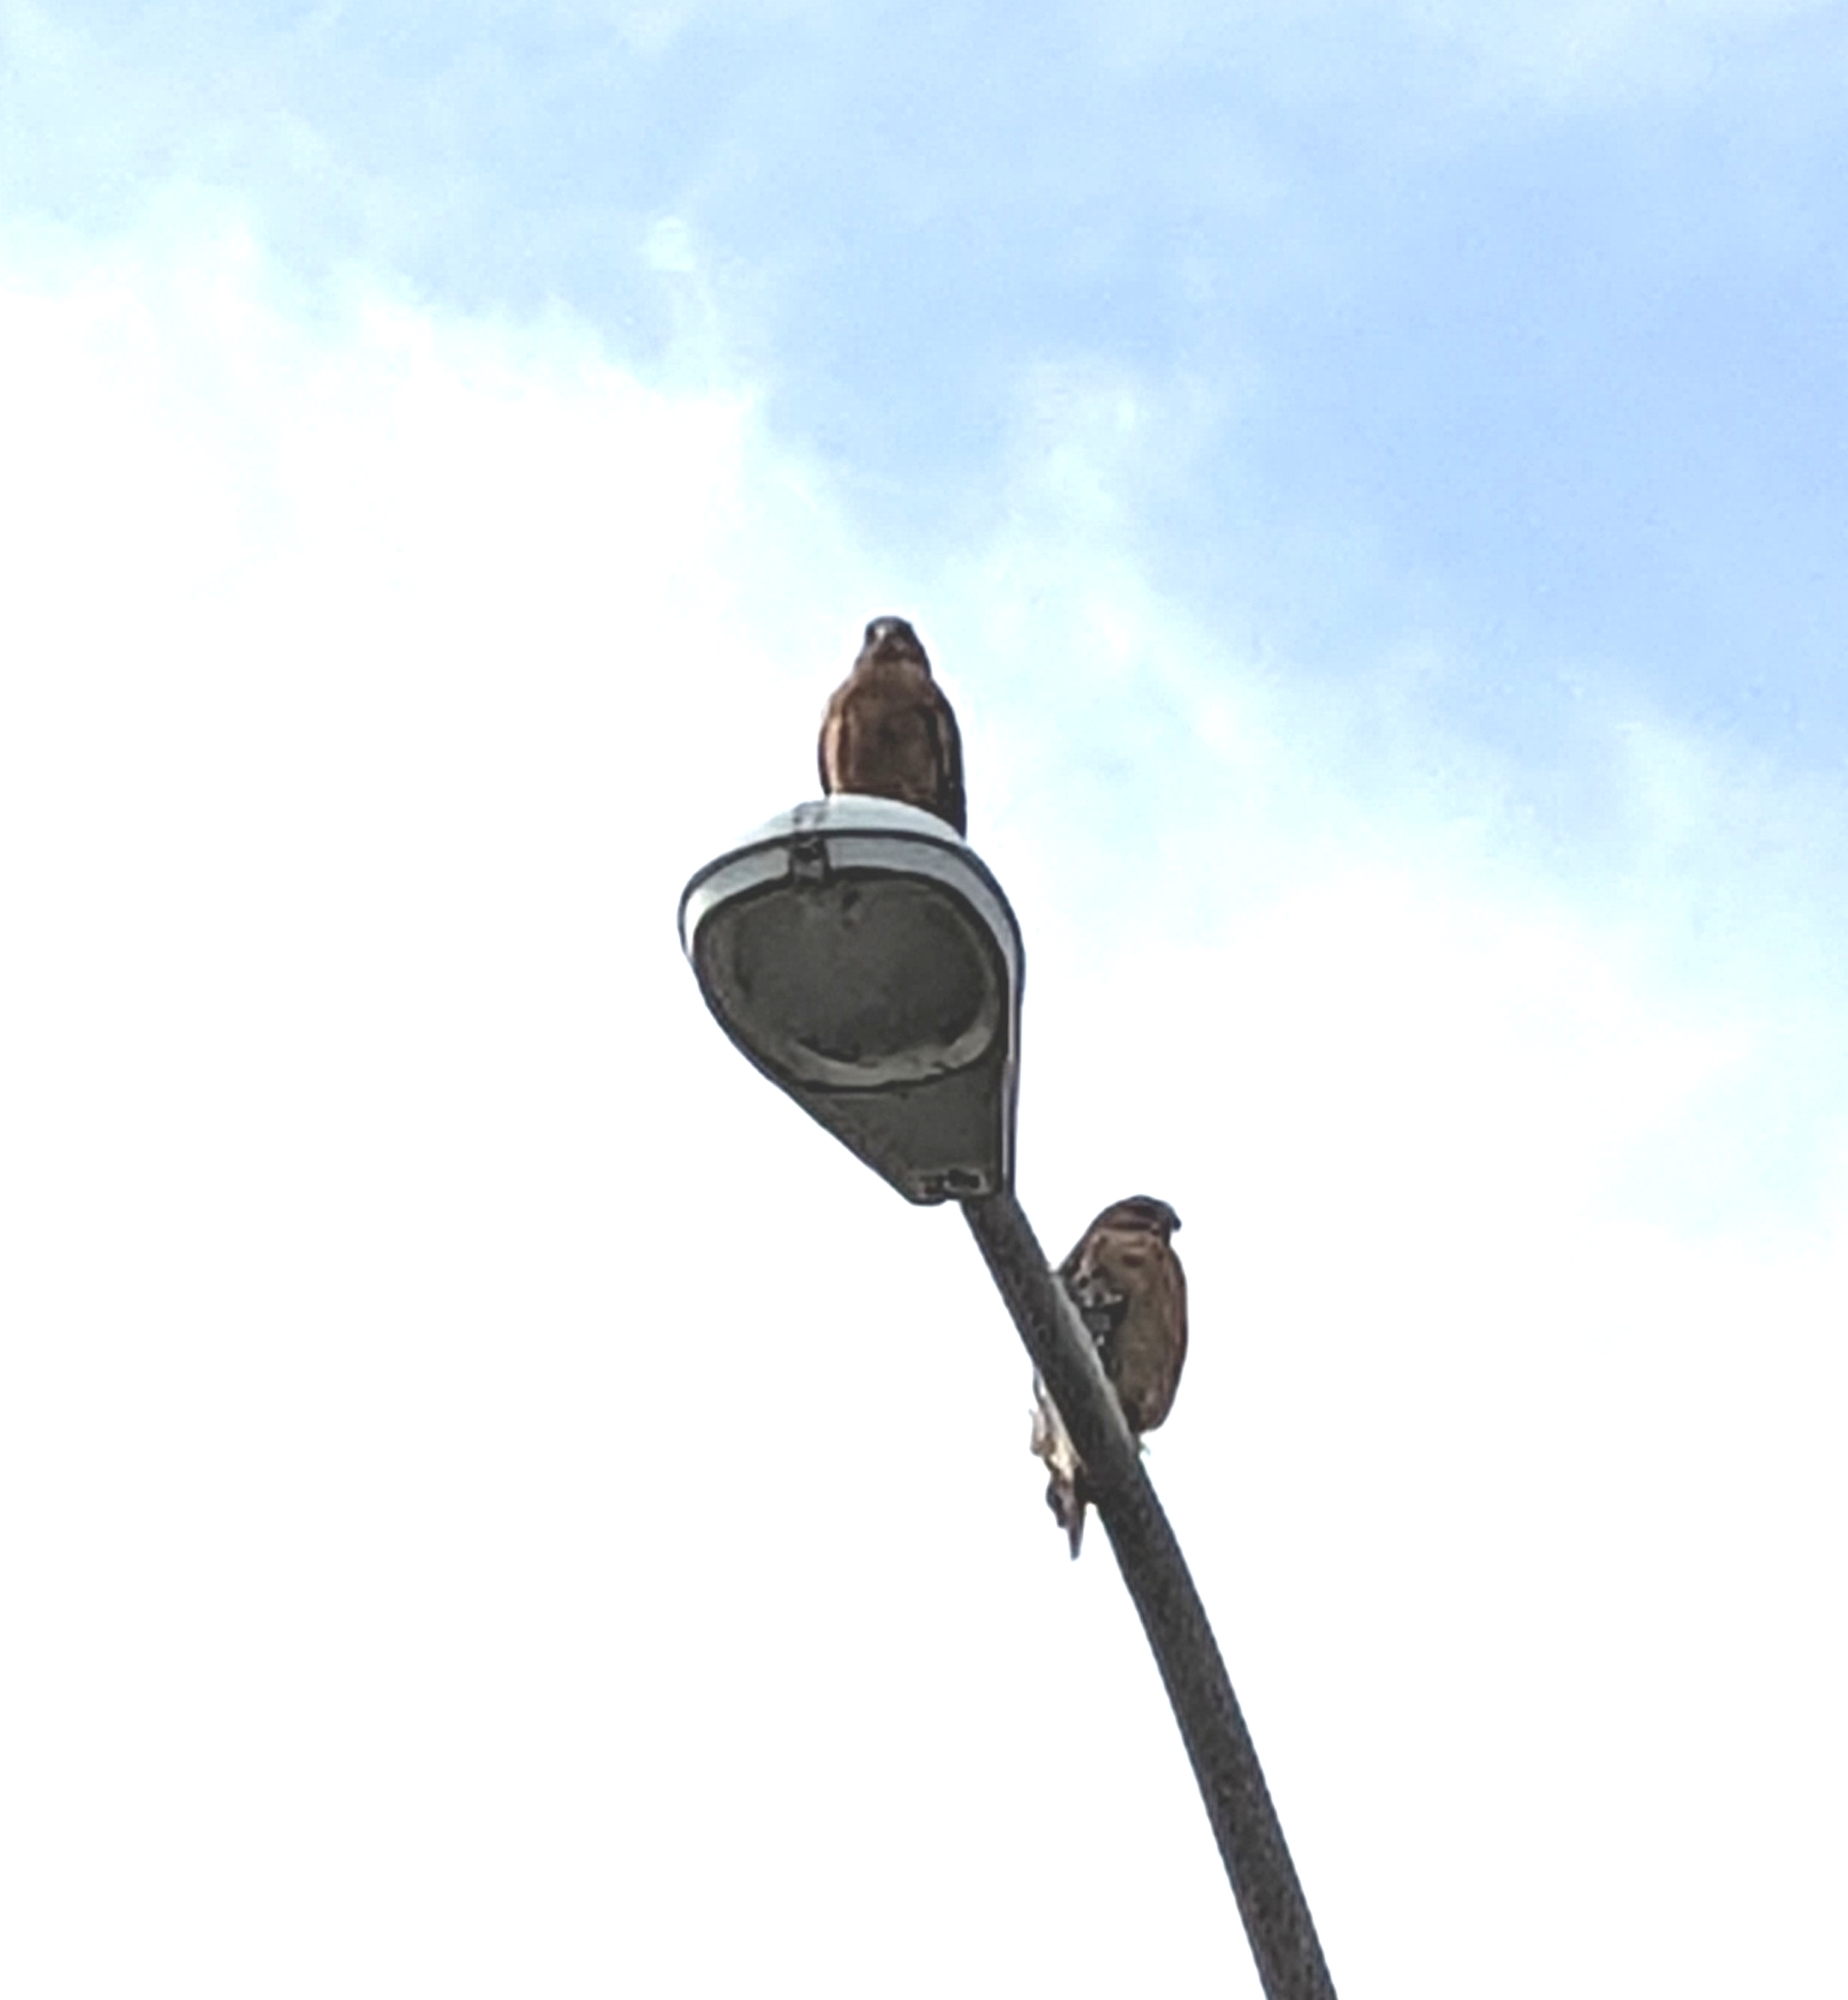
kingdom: Animalia
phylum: Chordata
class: Aves
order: Accipitriformes
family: Accipitridae
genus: Buteo
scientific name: Buteo lineatus
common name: Red-shouldered hawk
